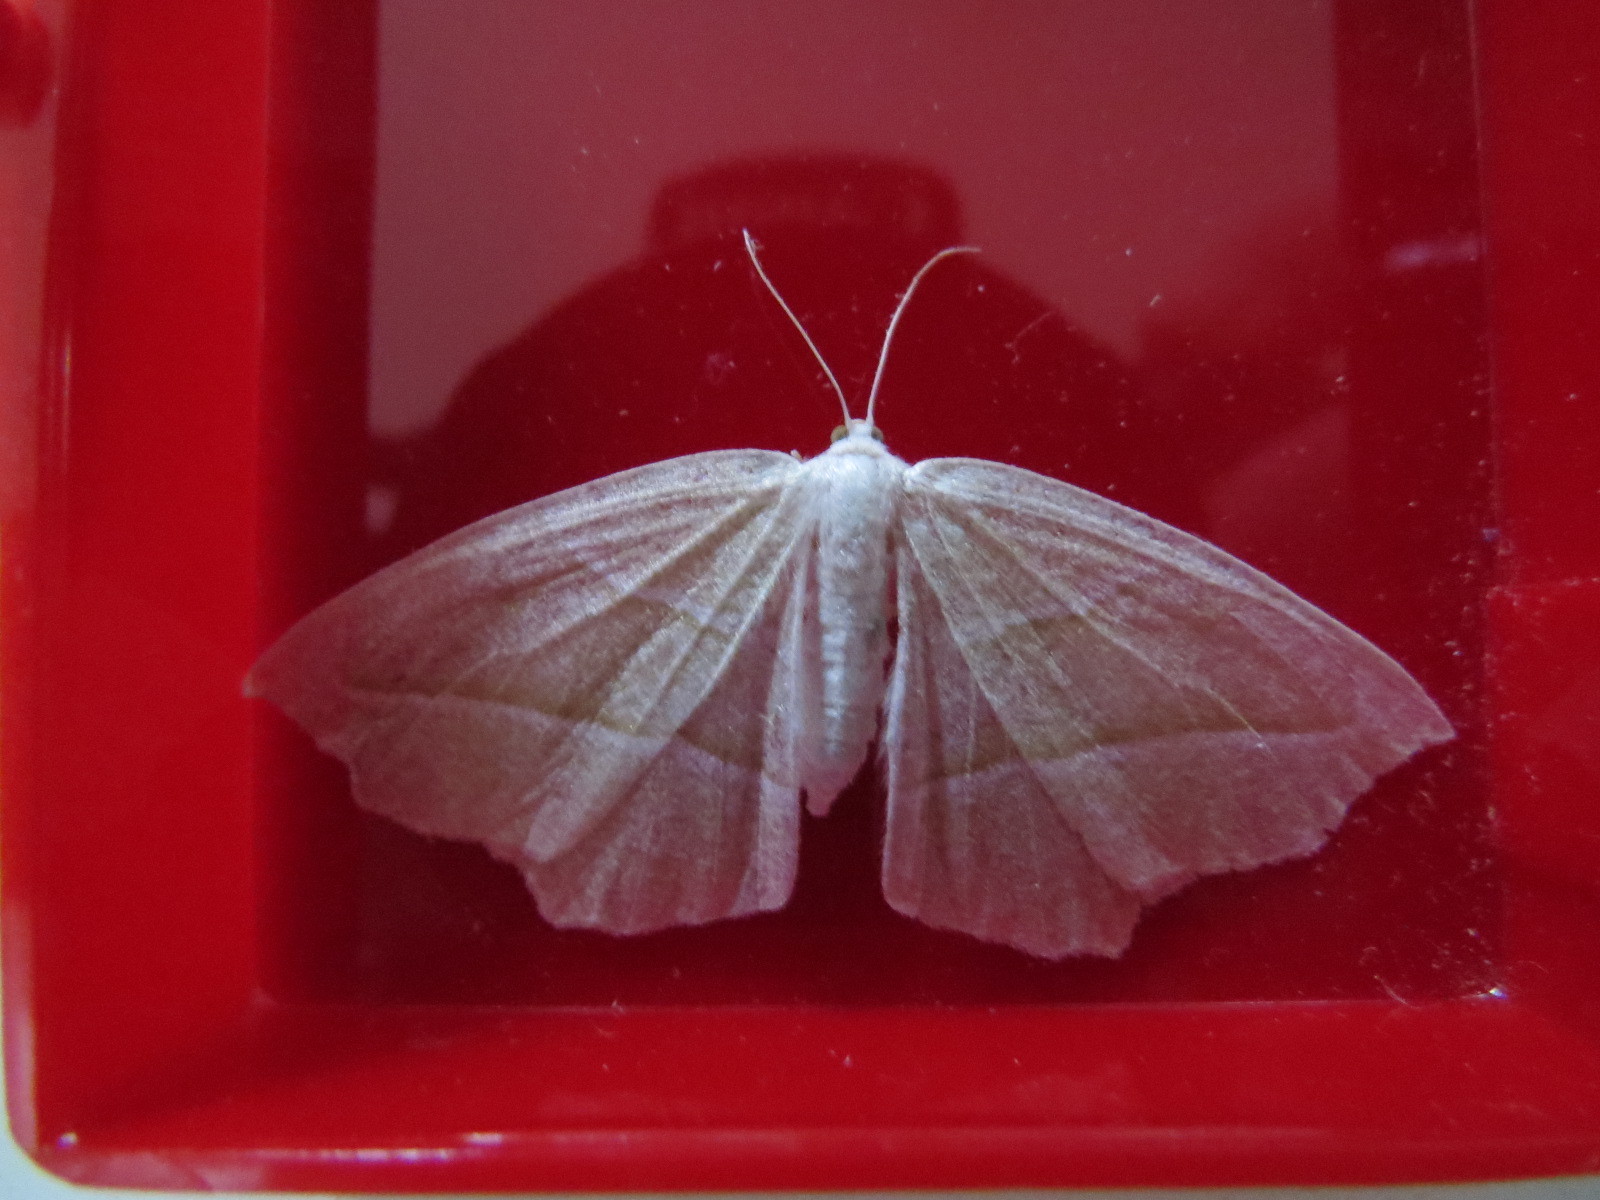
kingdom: Animalia
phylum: Arthropoda
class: Insecta
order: Lepidoptera
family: Geometridae
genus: Campaea
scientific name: Campaea perlata
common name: Fringed looper
